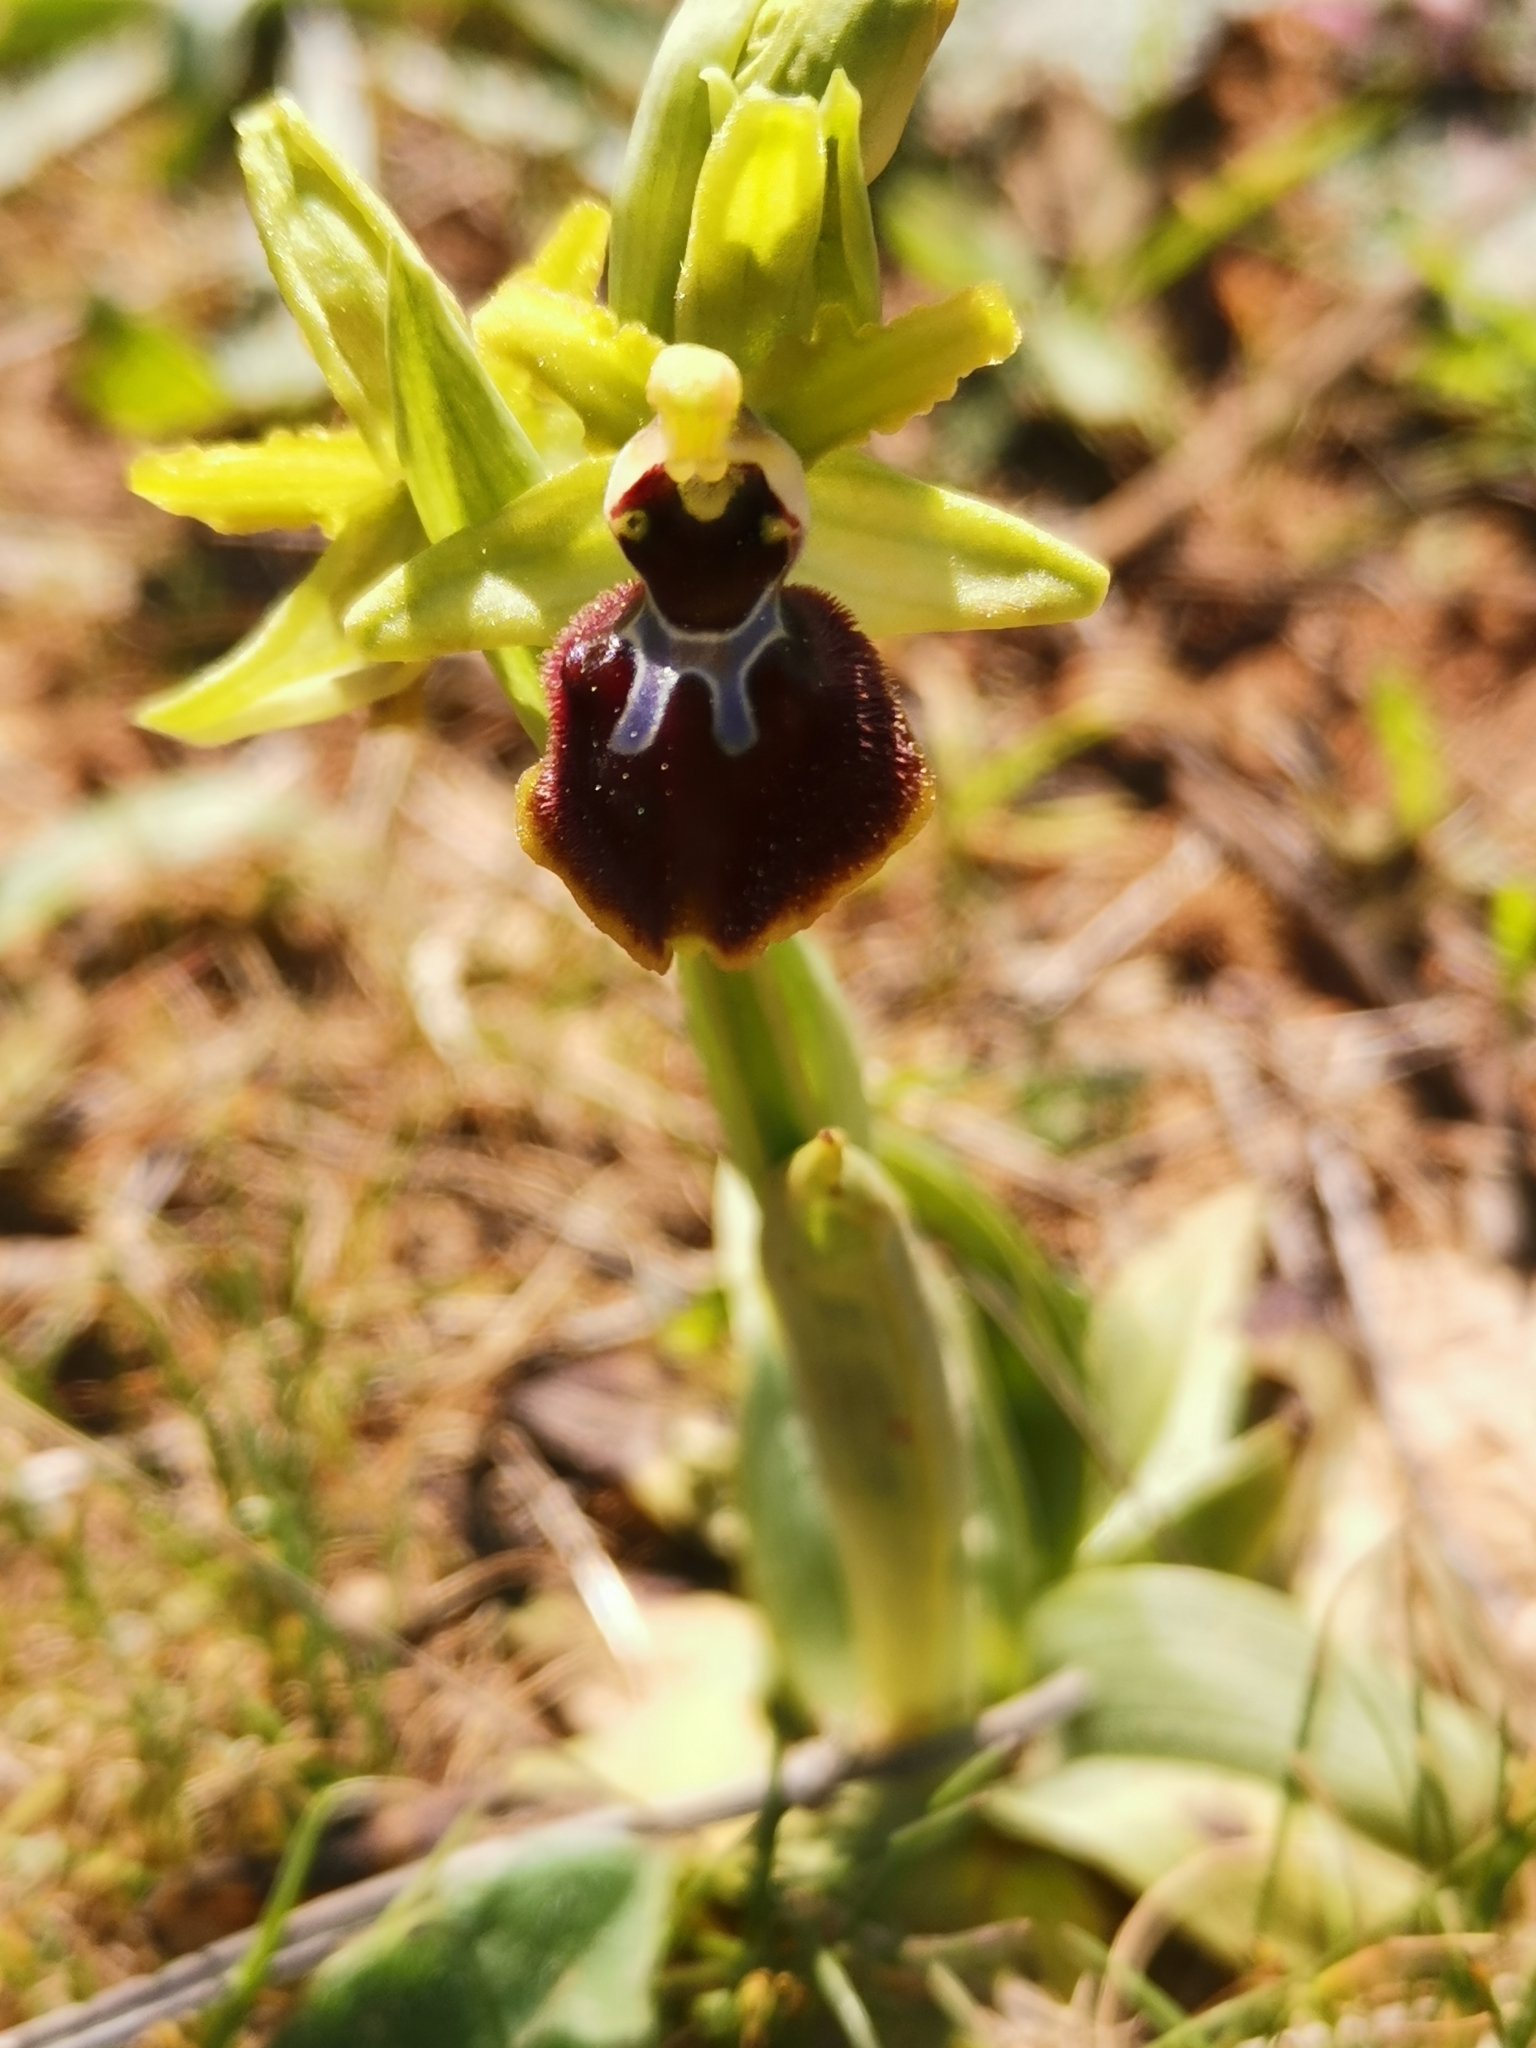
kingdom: Plantae
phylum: Tracheophyta
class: Liliopsida
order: Asparagales
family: Orchidaceae
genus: Ophrys
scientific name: Ophrys sphegodes
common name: Early spider-orchid
